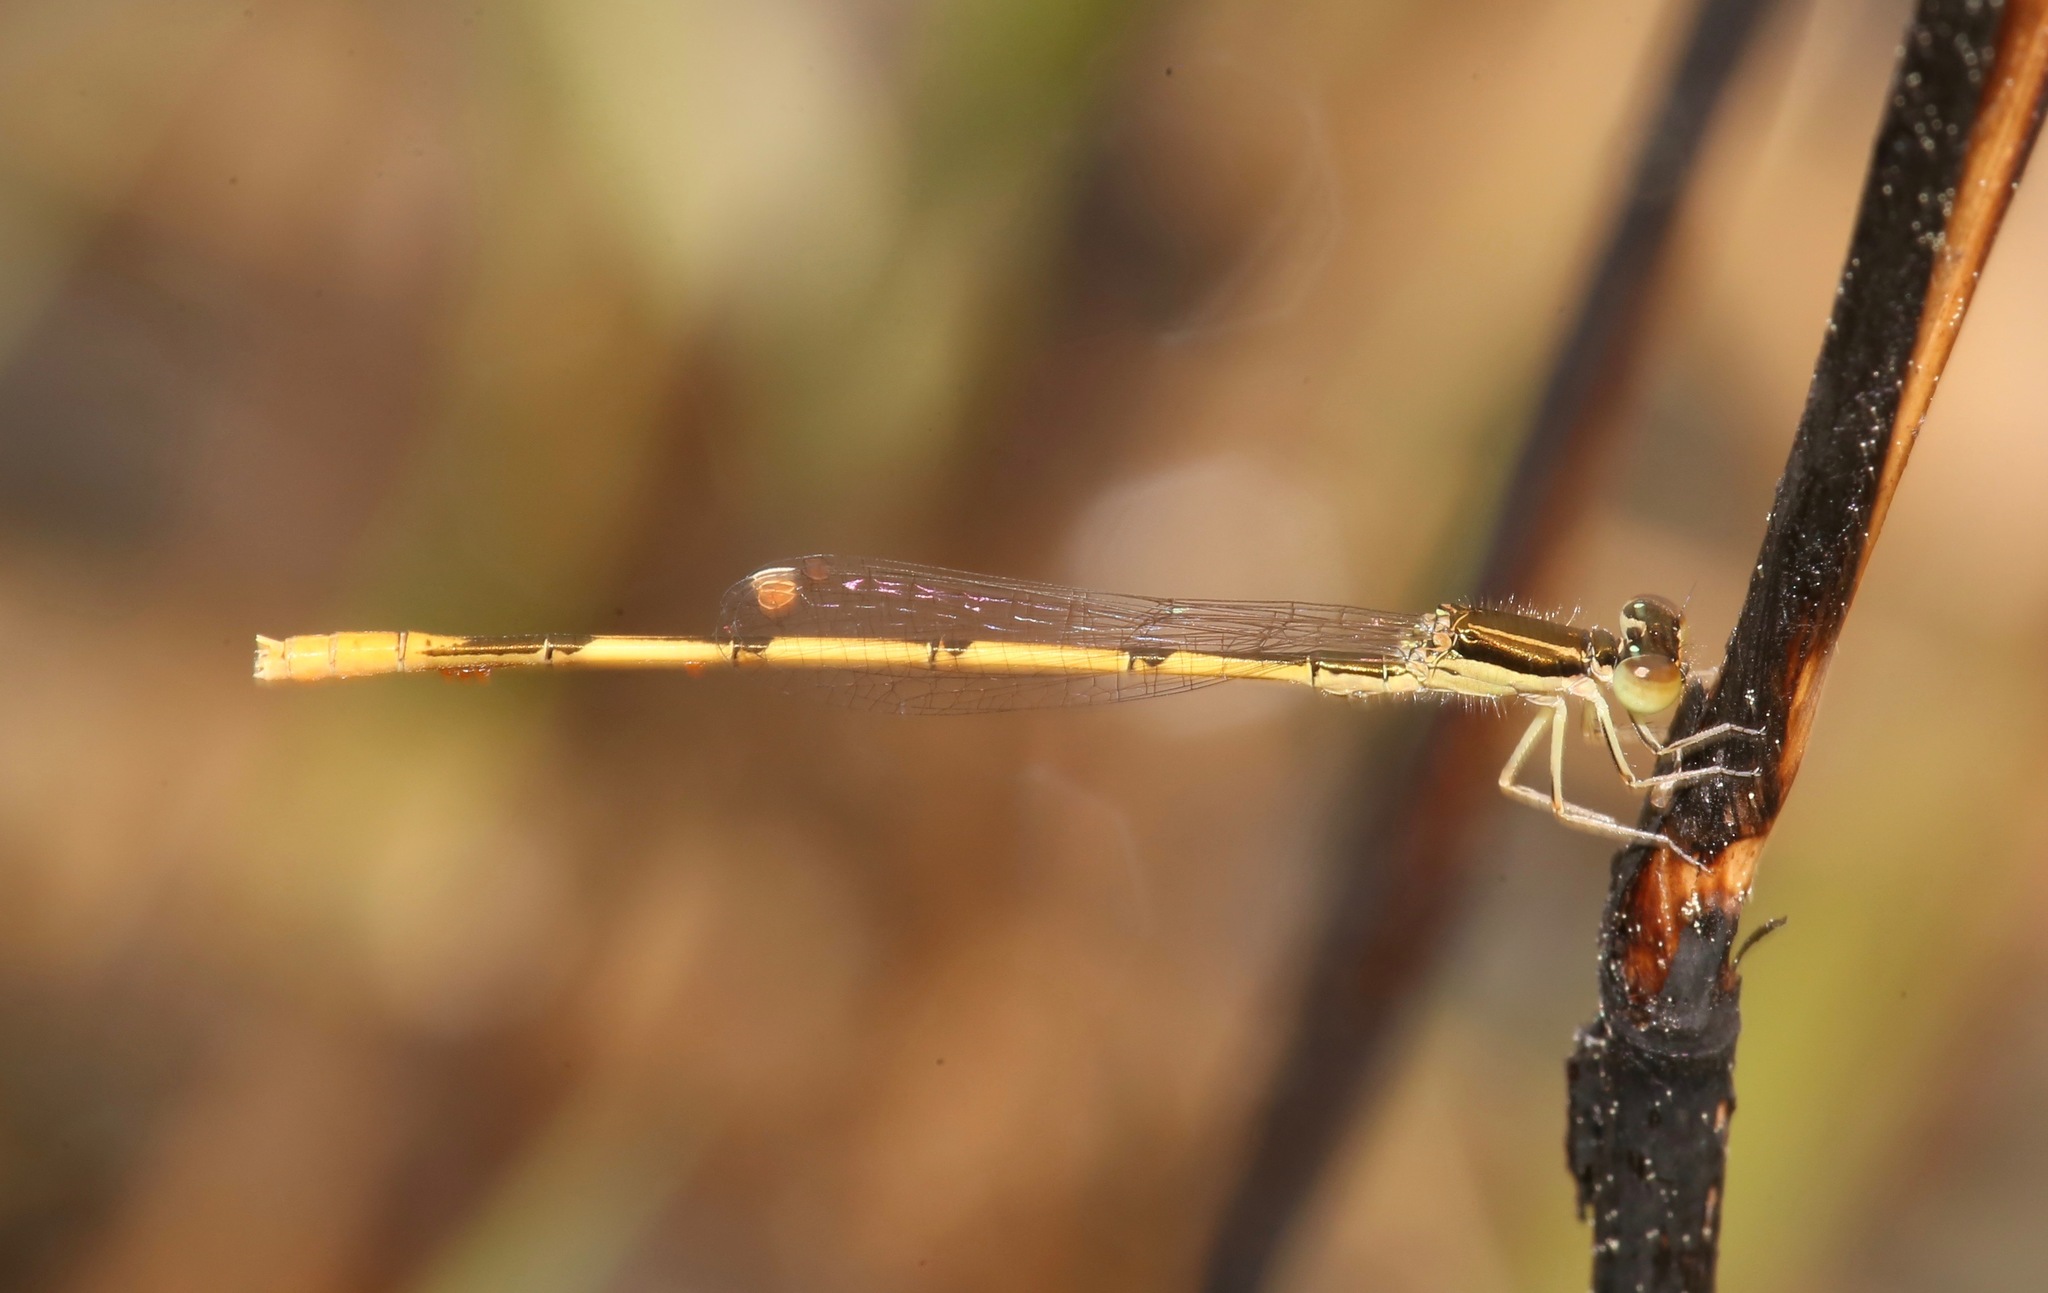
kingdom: Animalia
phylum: Arthropoda
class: Insecta
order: Odonata
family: Coenagrionidae
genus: Ischnura
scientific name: Ischnura hastata
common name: Citrine forktail
